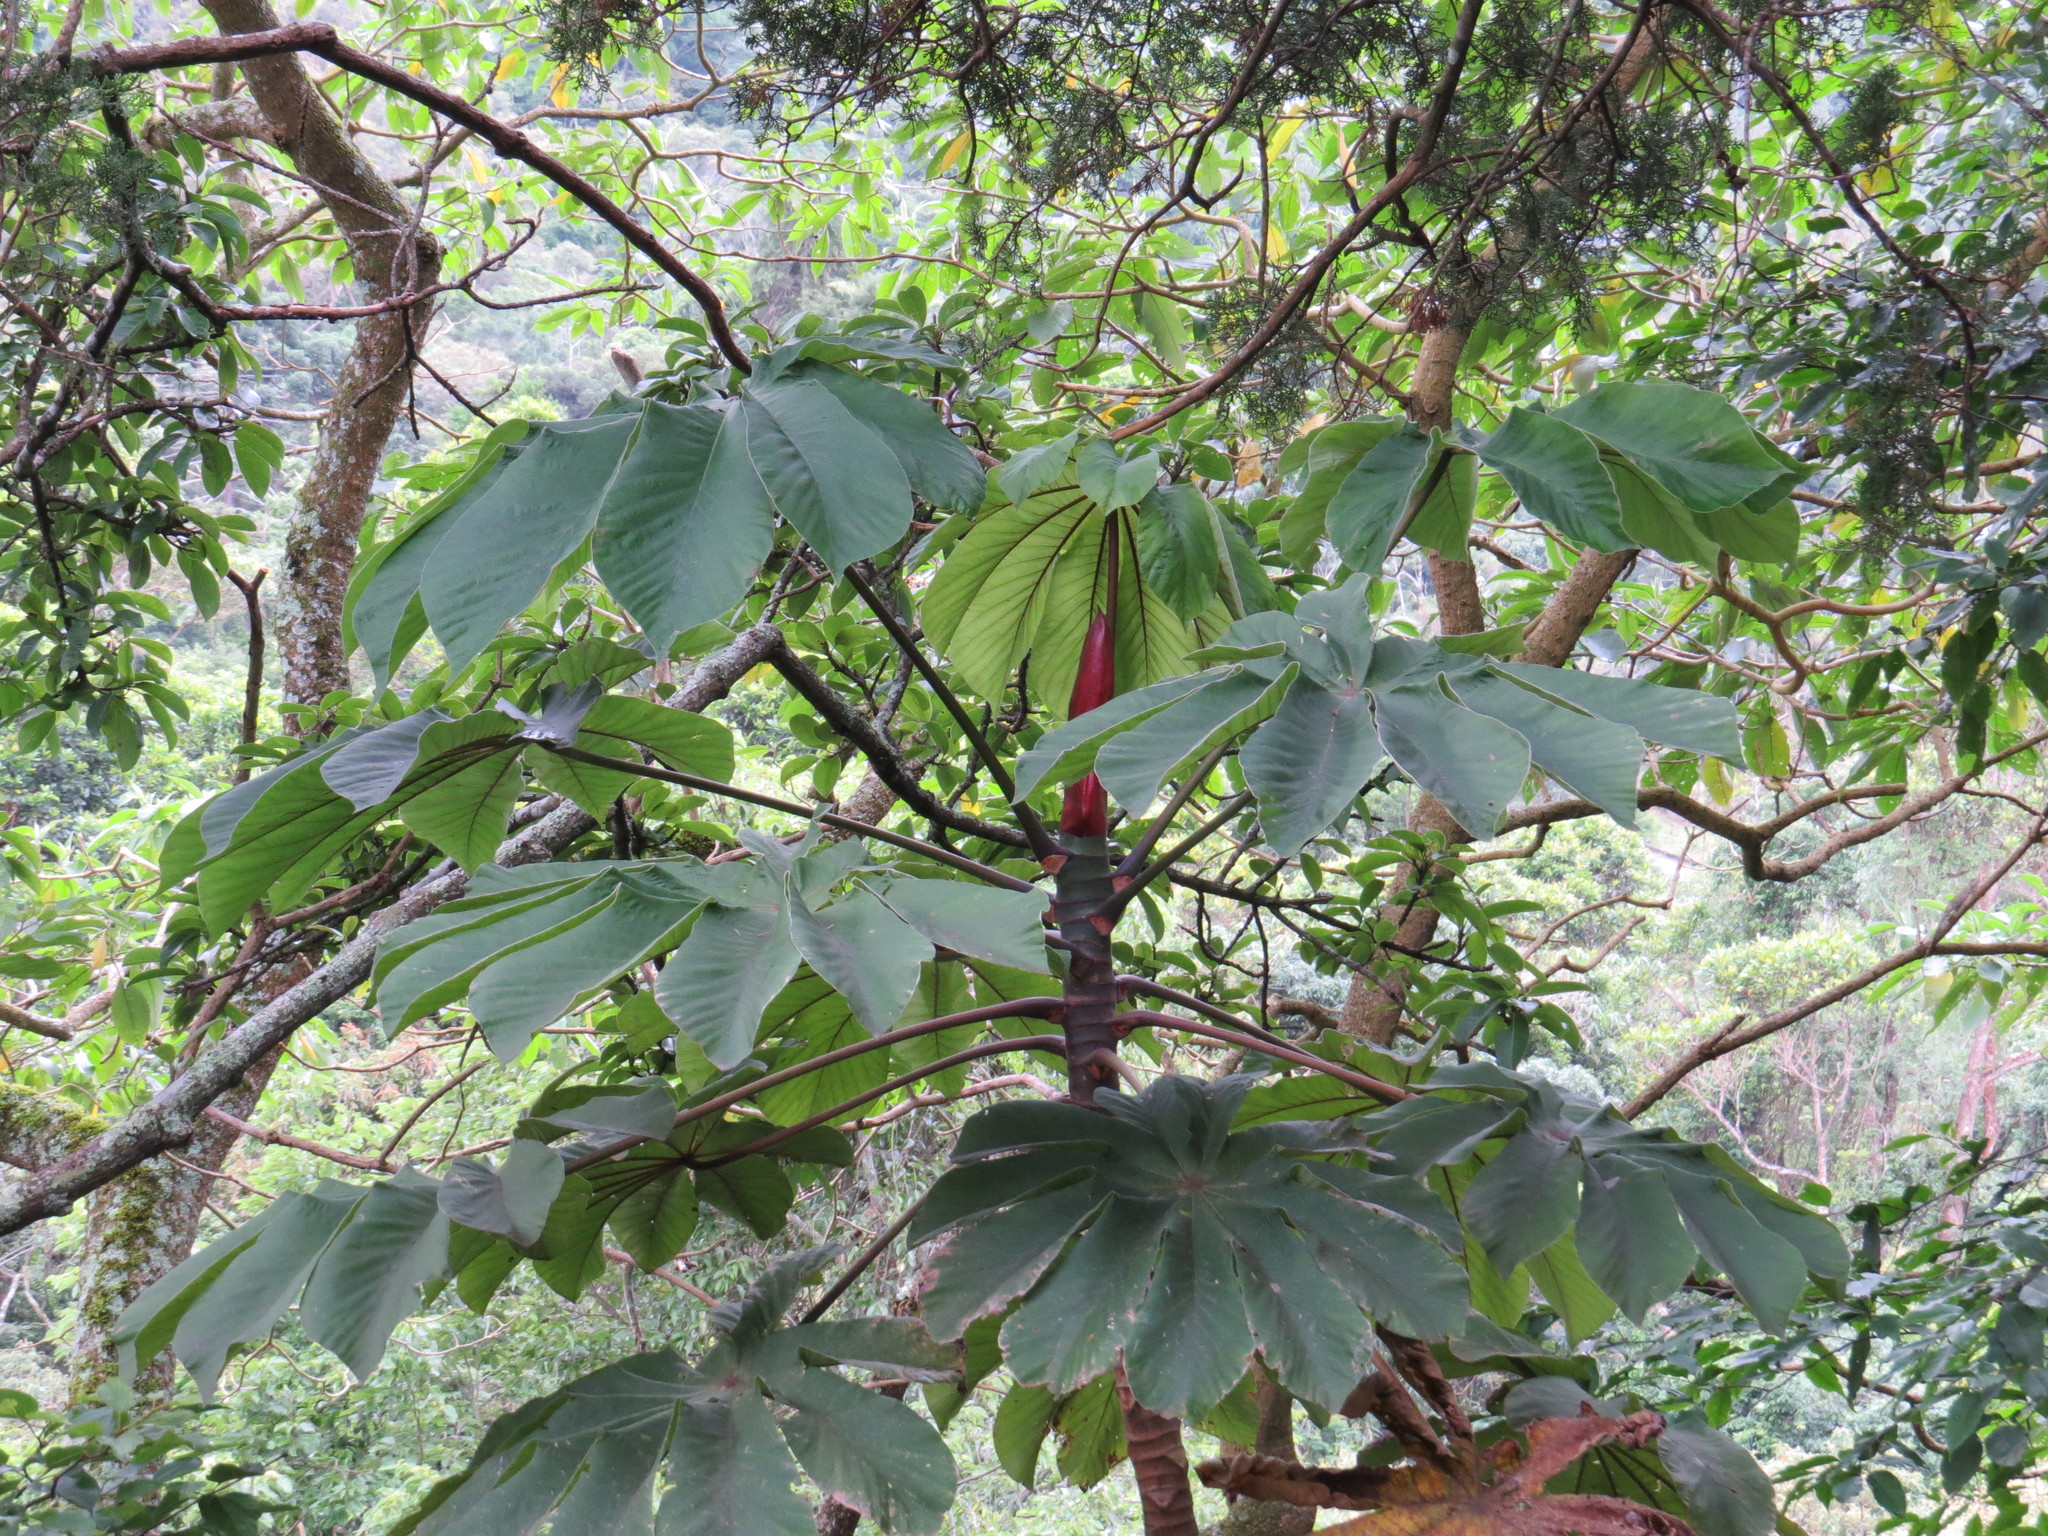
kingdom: Plantae
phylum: Tracheophyta
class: Magnoliopsida
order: Rosales
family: Urticaceae
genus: Cecropia
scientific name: Cecropia glaziovii
